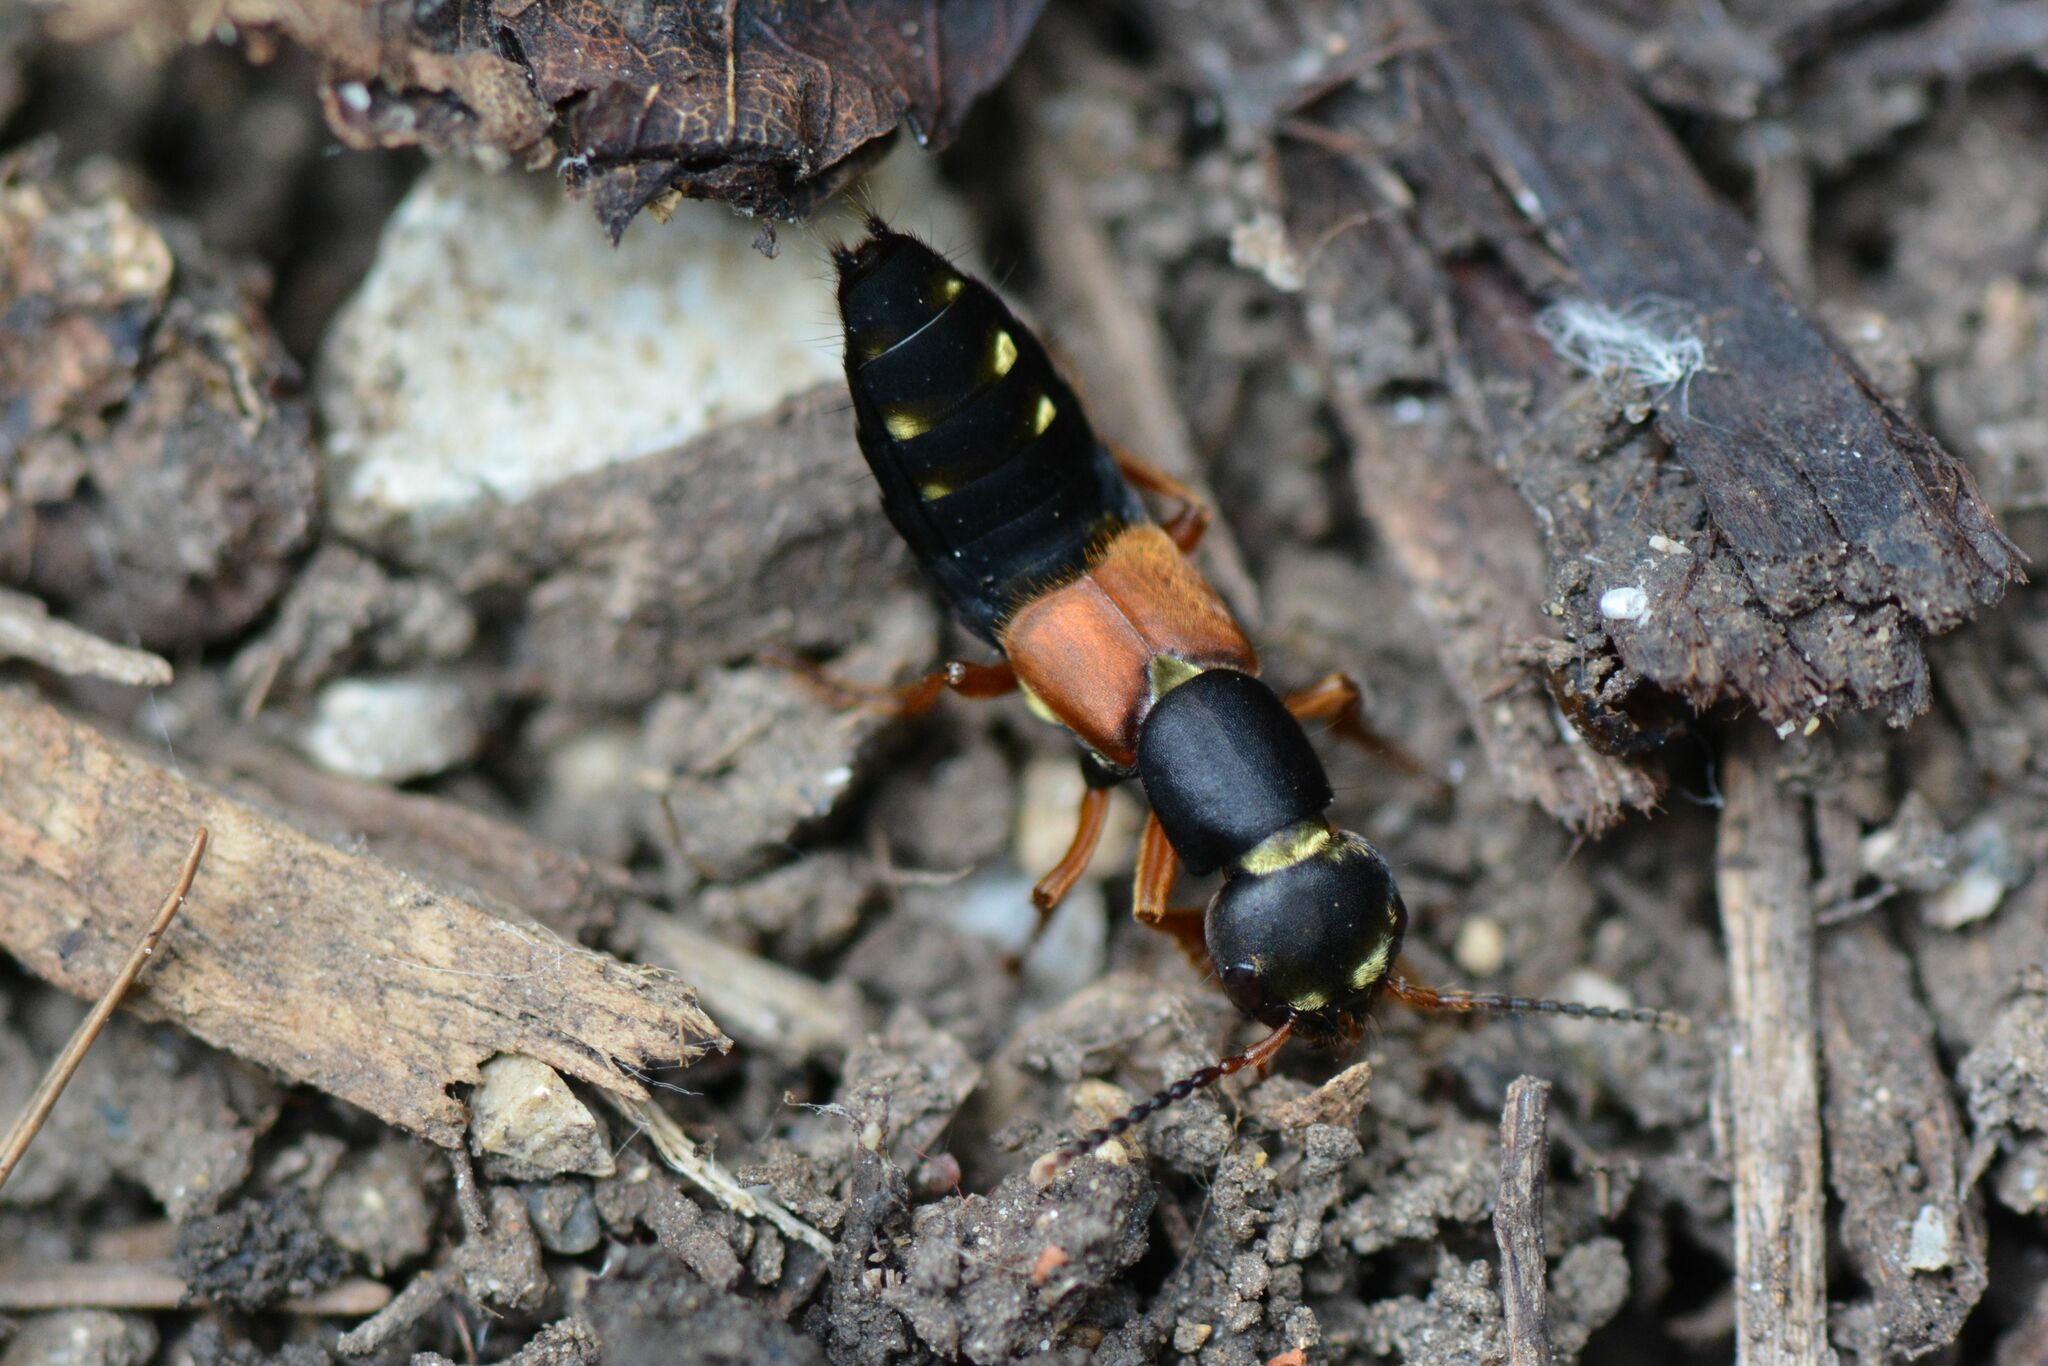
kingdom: Animalia
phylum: Arthropoda
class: Insecta
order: Coleoptera
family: Staphylinidae
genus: Staphylinus
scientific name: Staphylinus erythropterus
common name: Staph beetle
